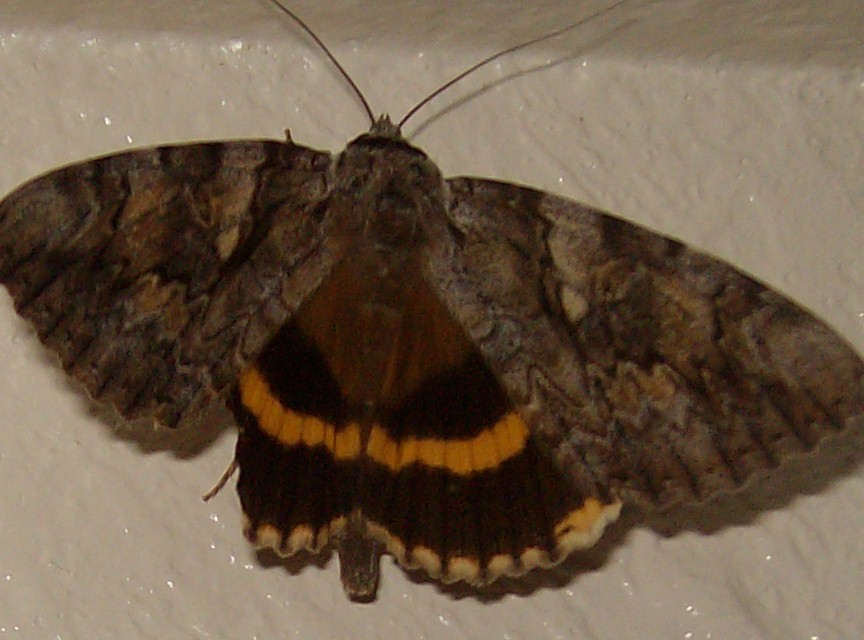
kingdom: Animalia
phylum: Arthropoda
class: Insecta
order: Lepidoptera
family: Erebidae
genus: Catocala
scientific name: Catocala cerogama
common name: Yellow banded underwing
